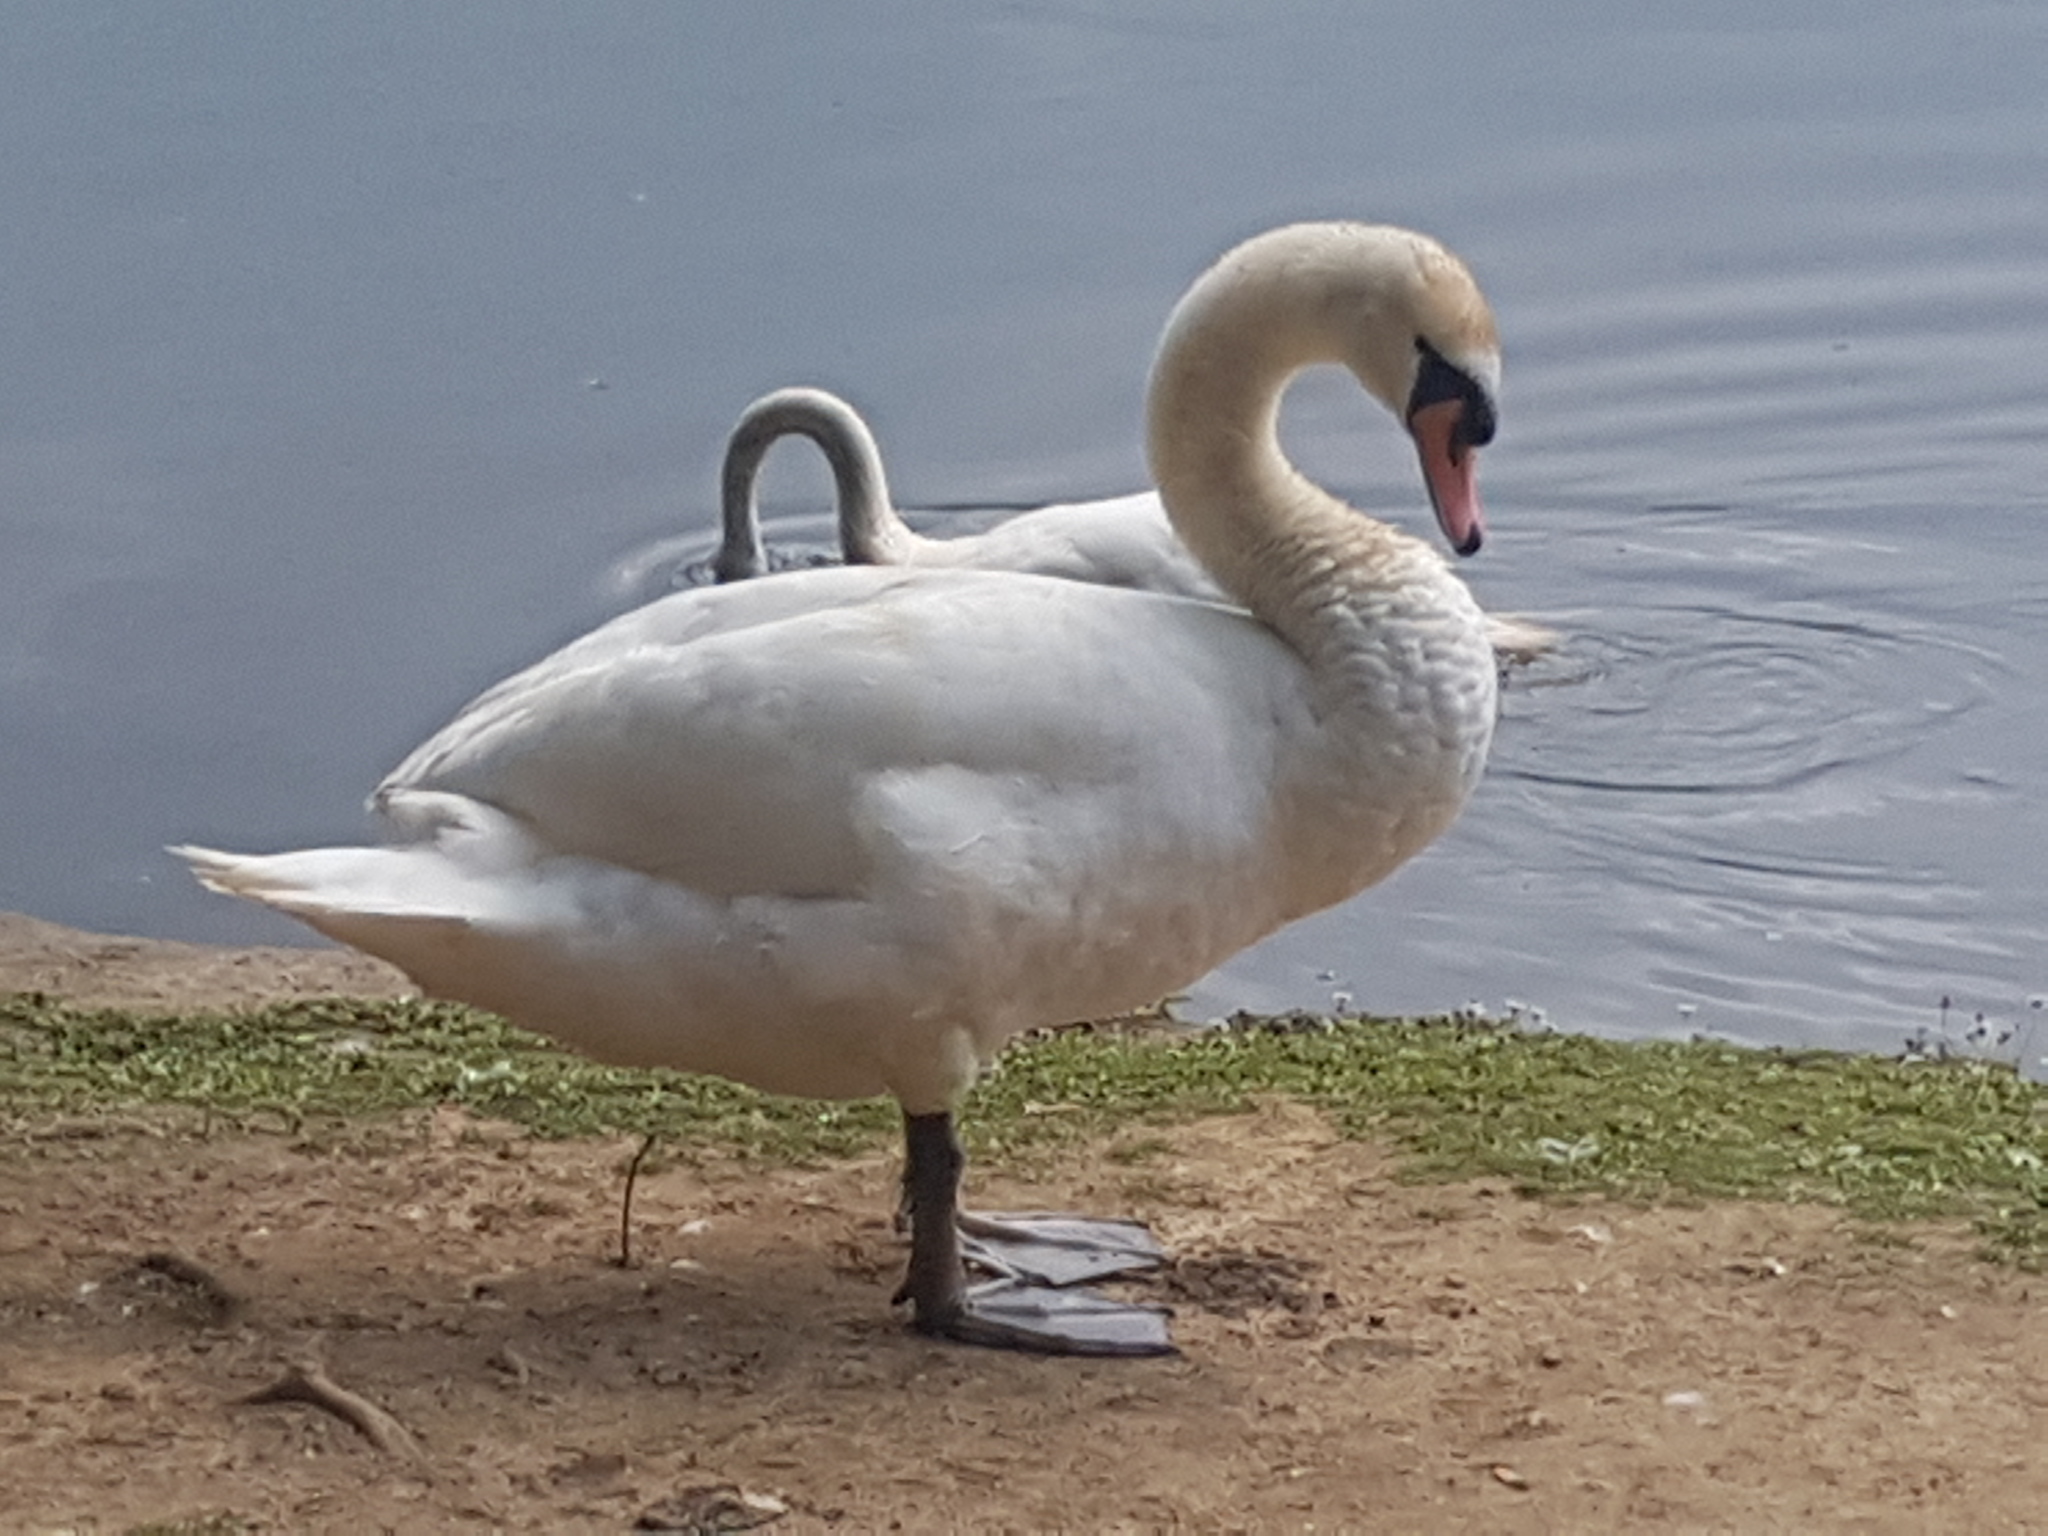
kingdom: Animalia
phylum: Chordata
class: Aves
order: Anseriformes
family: Anatidae
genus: Cygnus
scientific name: Cygnus olor
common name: Mute swan
